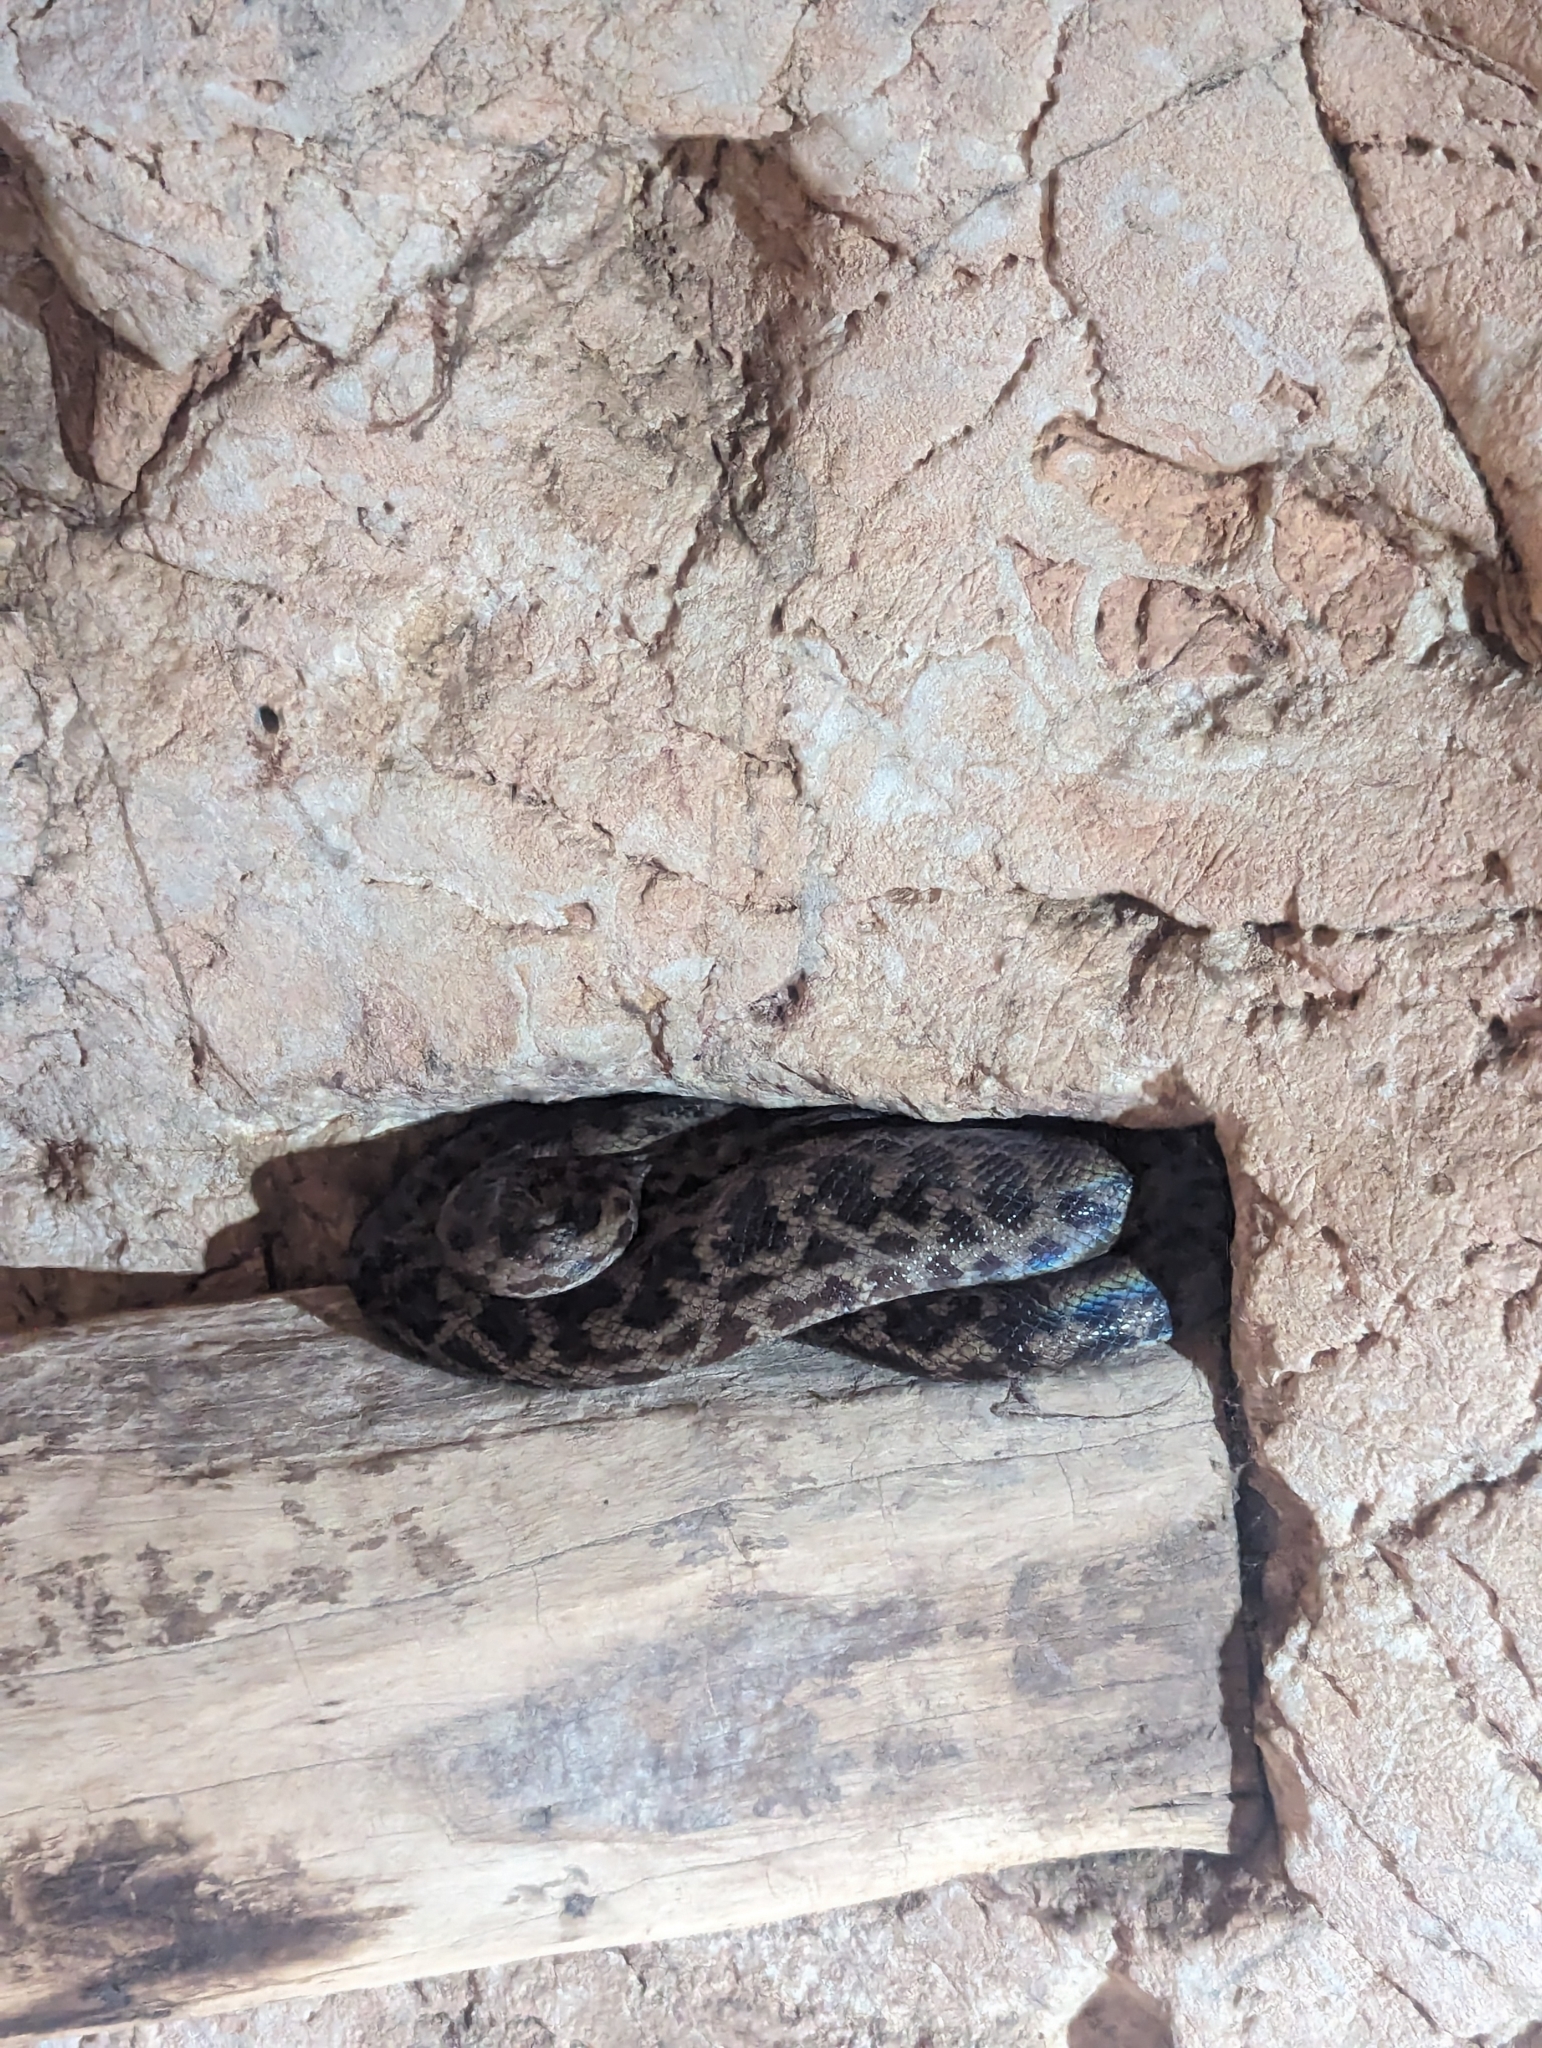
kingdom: Animalia
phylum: Chordata
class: Squamata
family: Pythonidae
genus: Antaresia
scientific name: Antaresia maculosa
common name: Eastern childrens python
